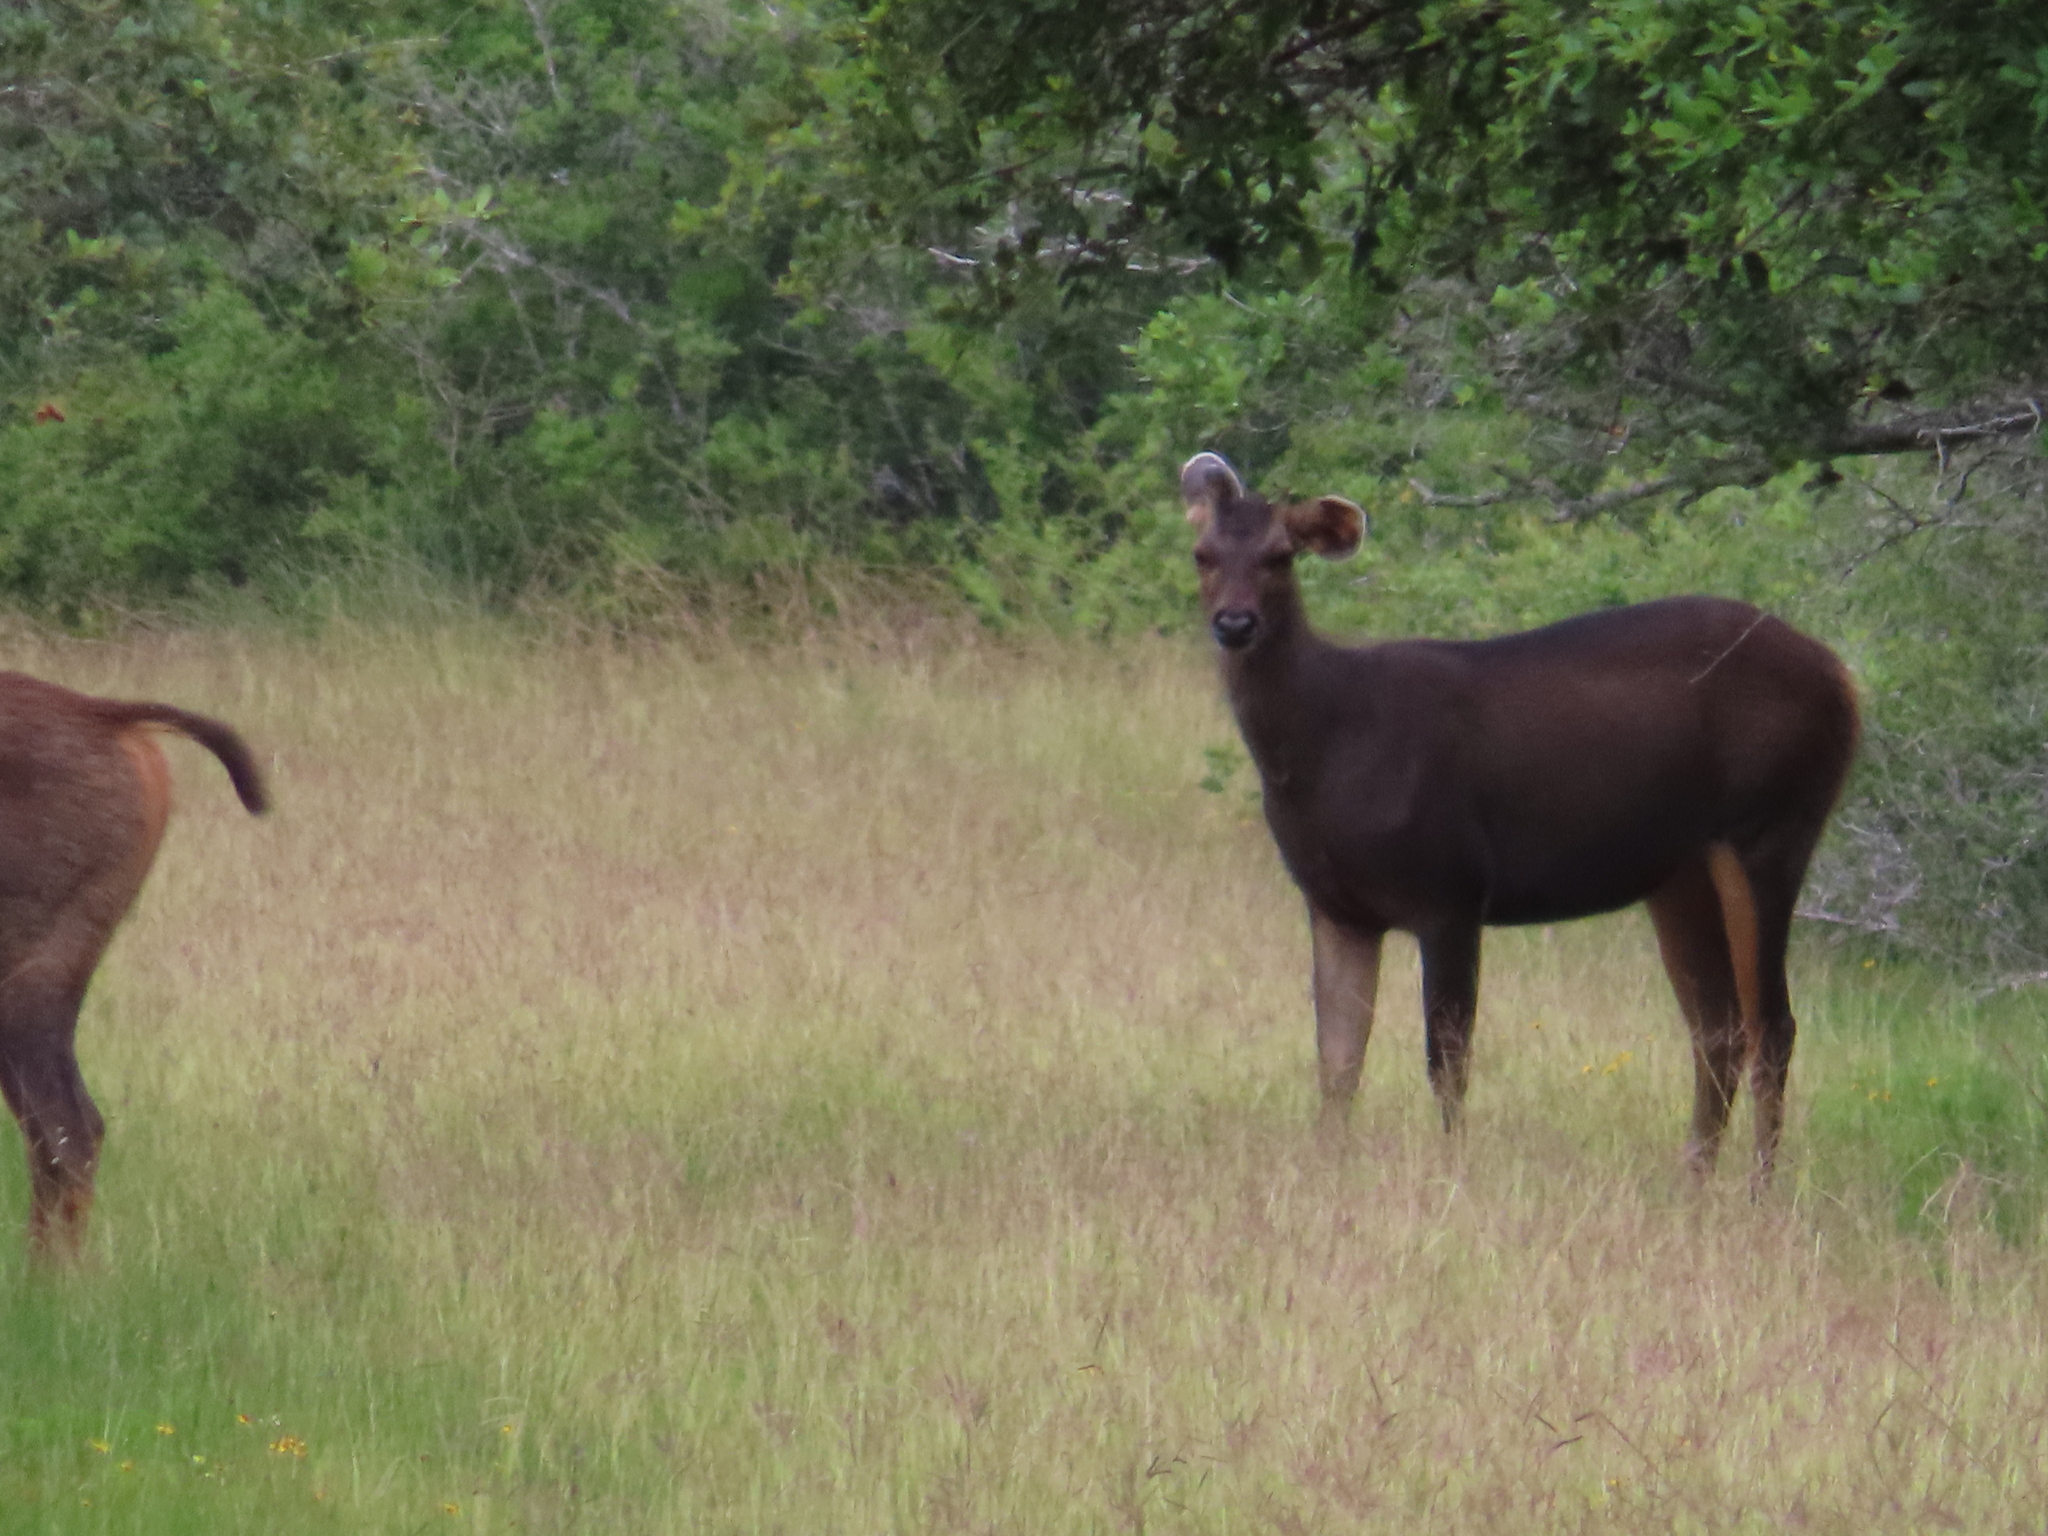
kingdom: Animalia
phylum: Chordata
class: Mammalia
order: Artiodactyla
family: Cervidae
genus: Rusa
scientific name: Rusa unicolor
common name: Sambar
